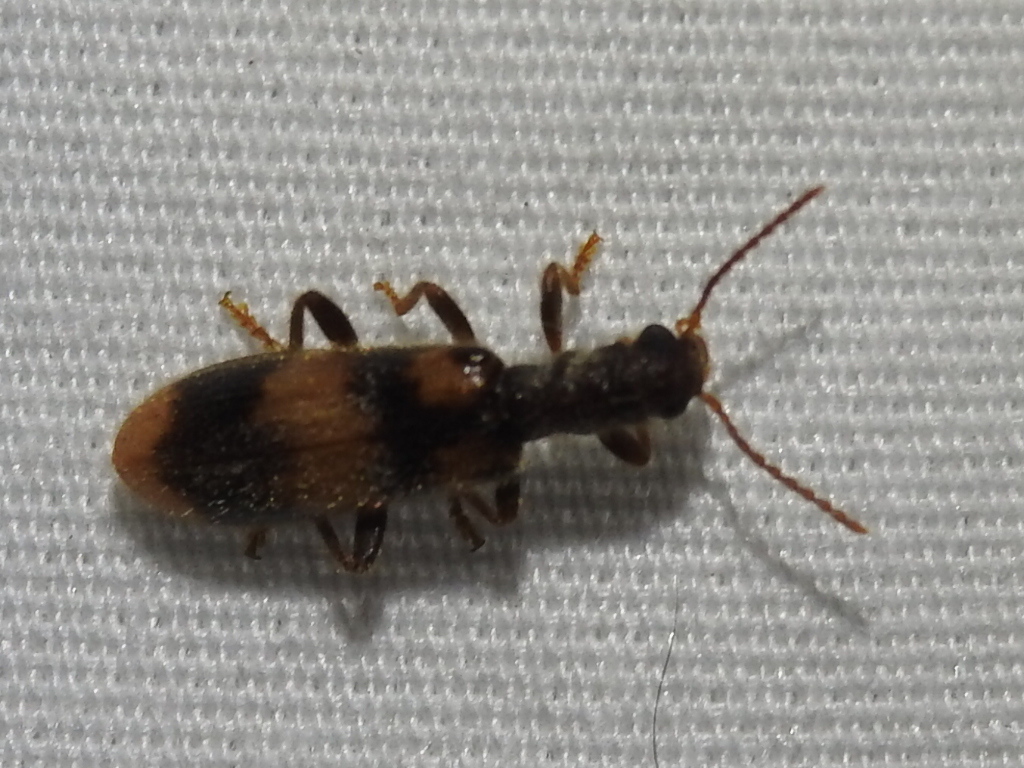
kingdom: Animalia
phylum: Arthropoda
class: Insecta
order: Coleoptera
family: Cleridae
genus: Cymatodera
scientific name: Cymatodera sirpata
